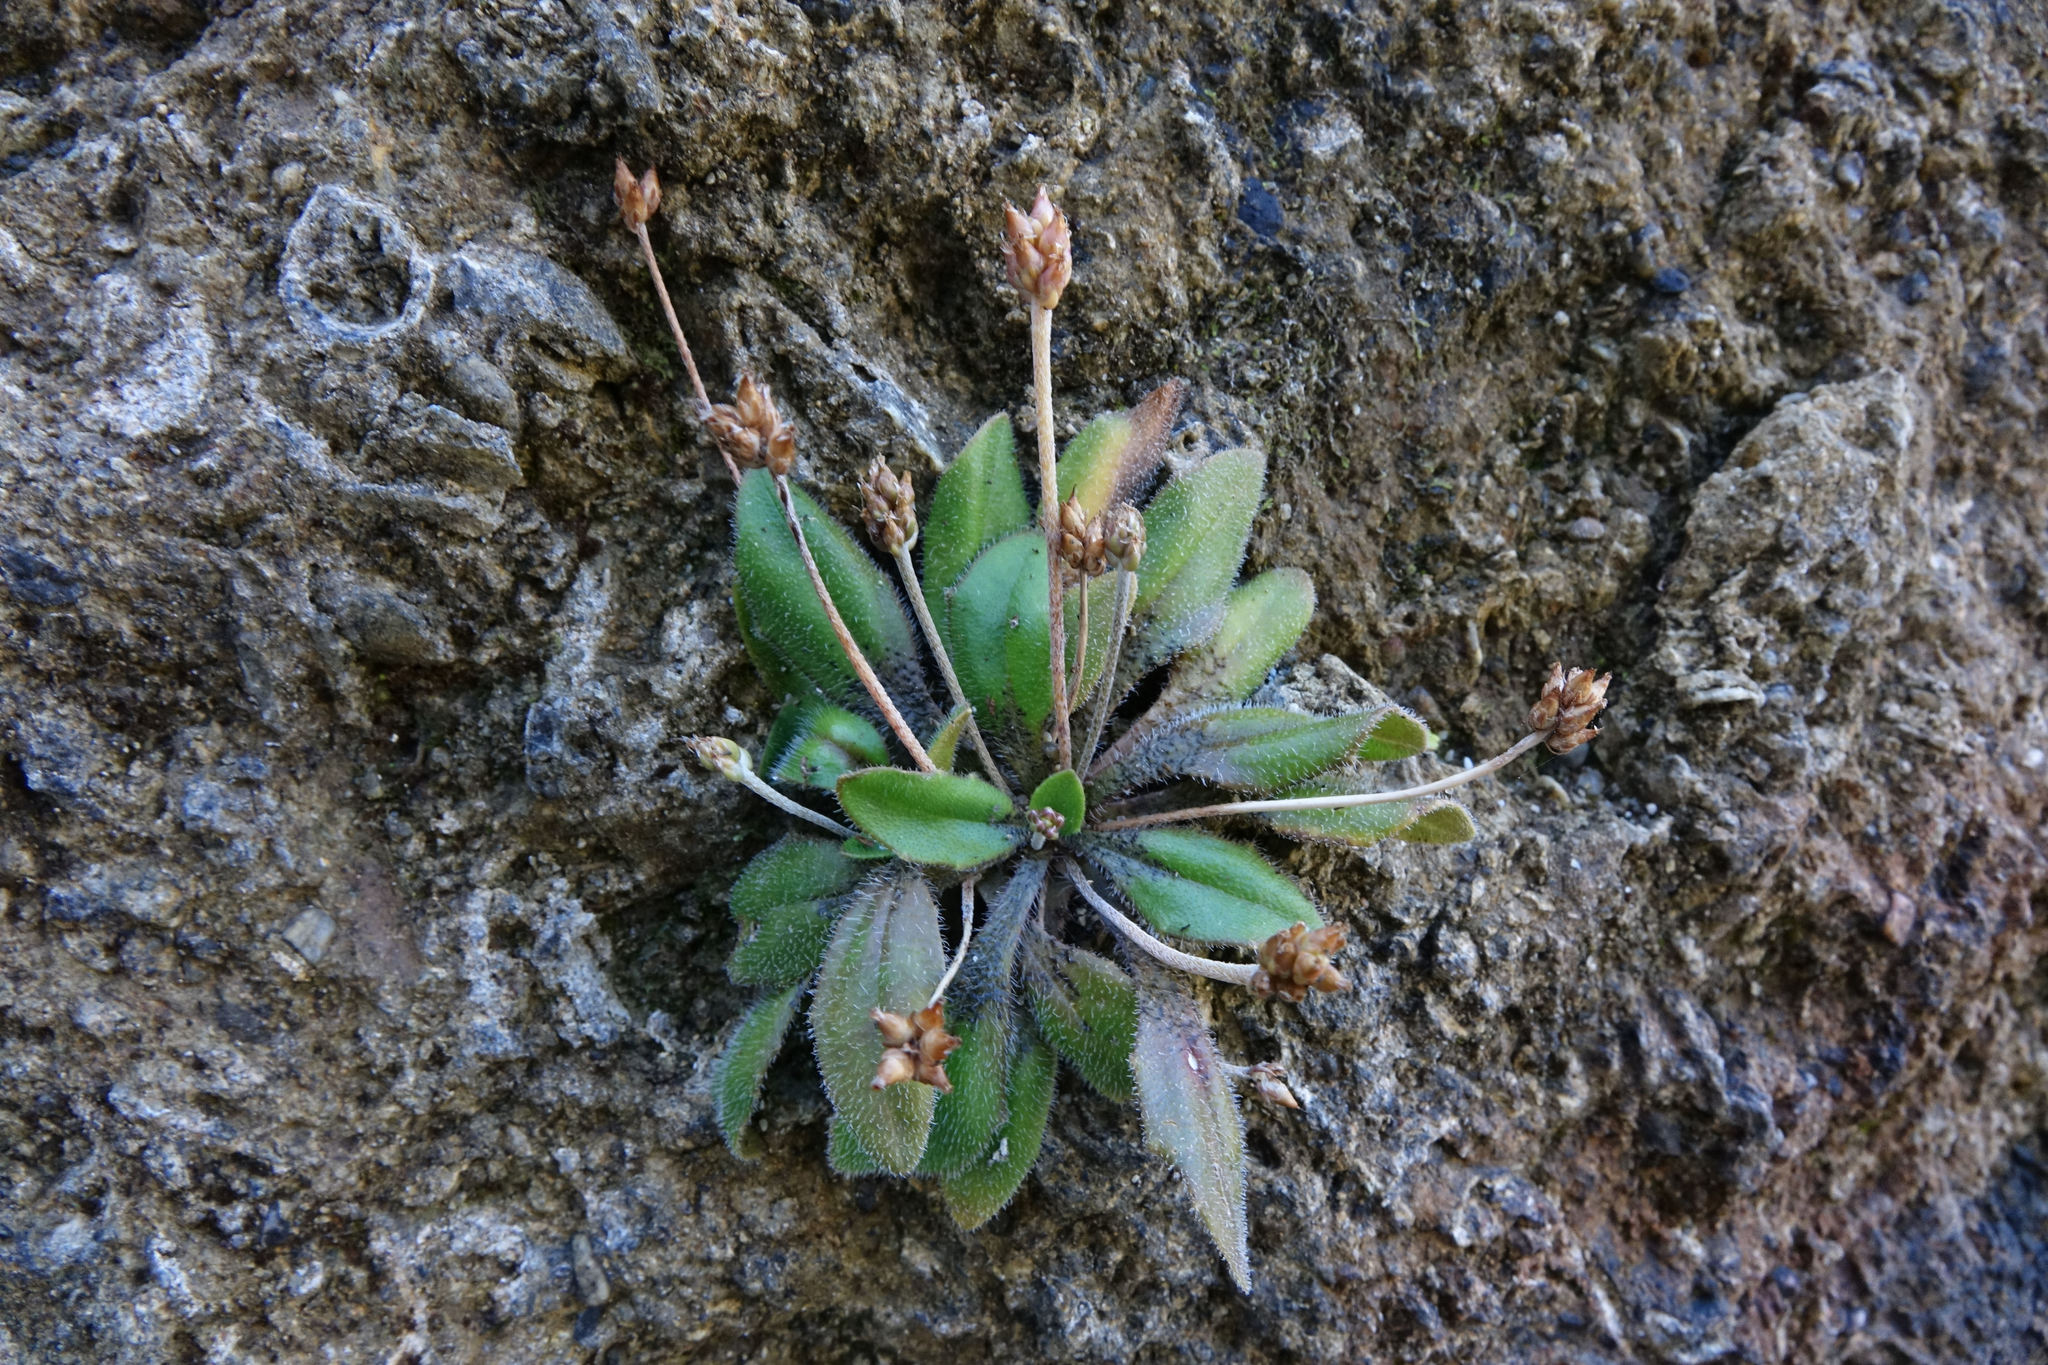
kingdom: Plantae
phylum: Tracheophyta
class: Magnoliopsida
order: Lamiales
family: Plantaginaceae
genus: Plantago
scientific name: Plantago raoulii
